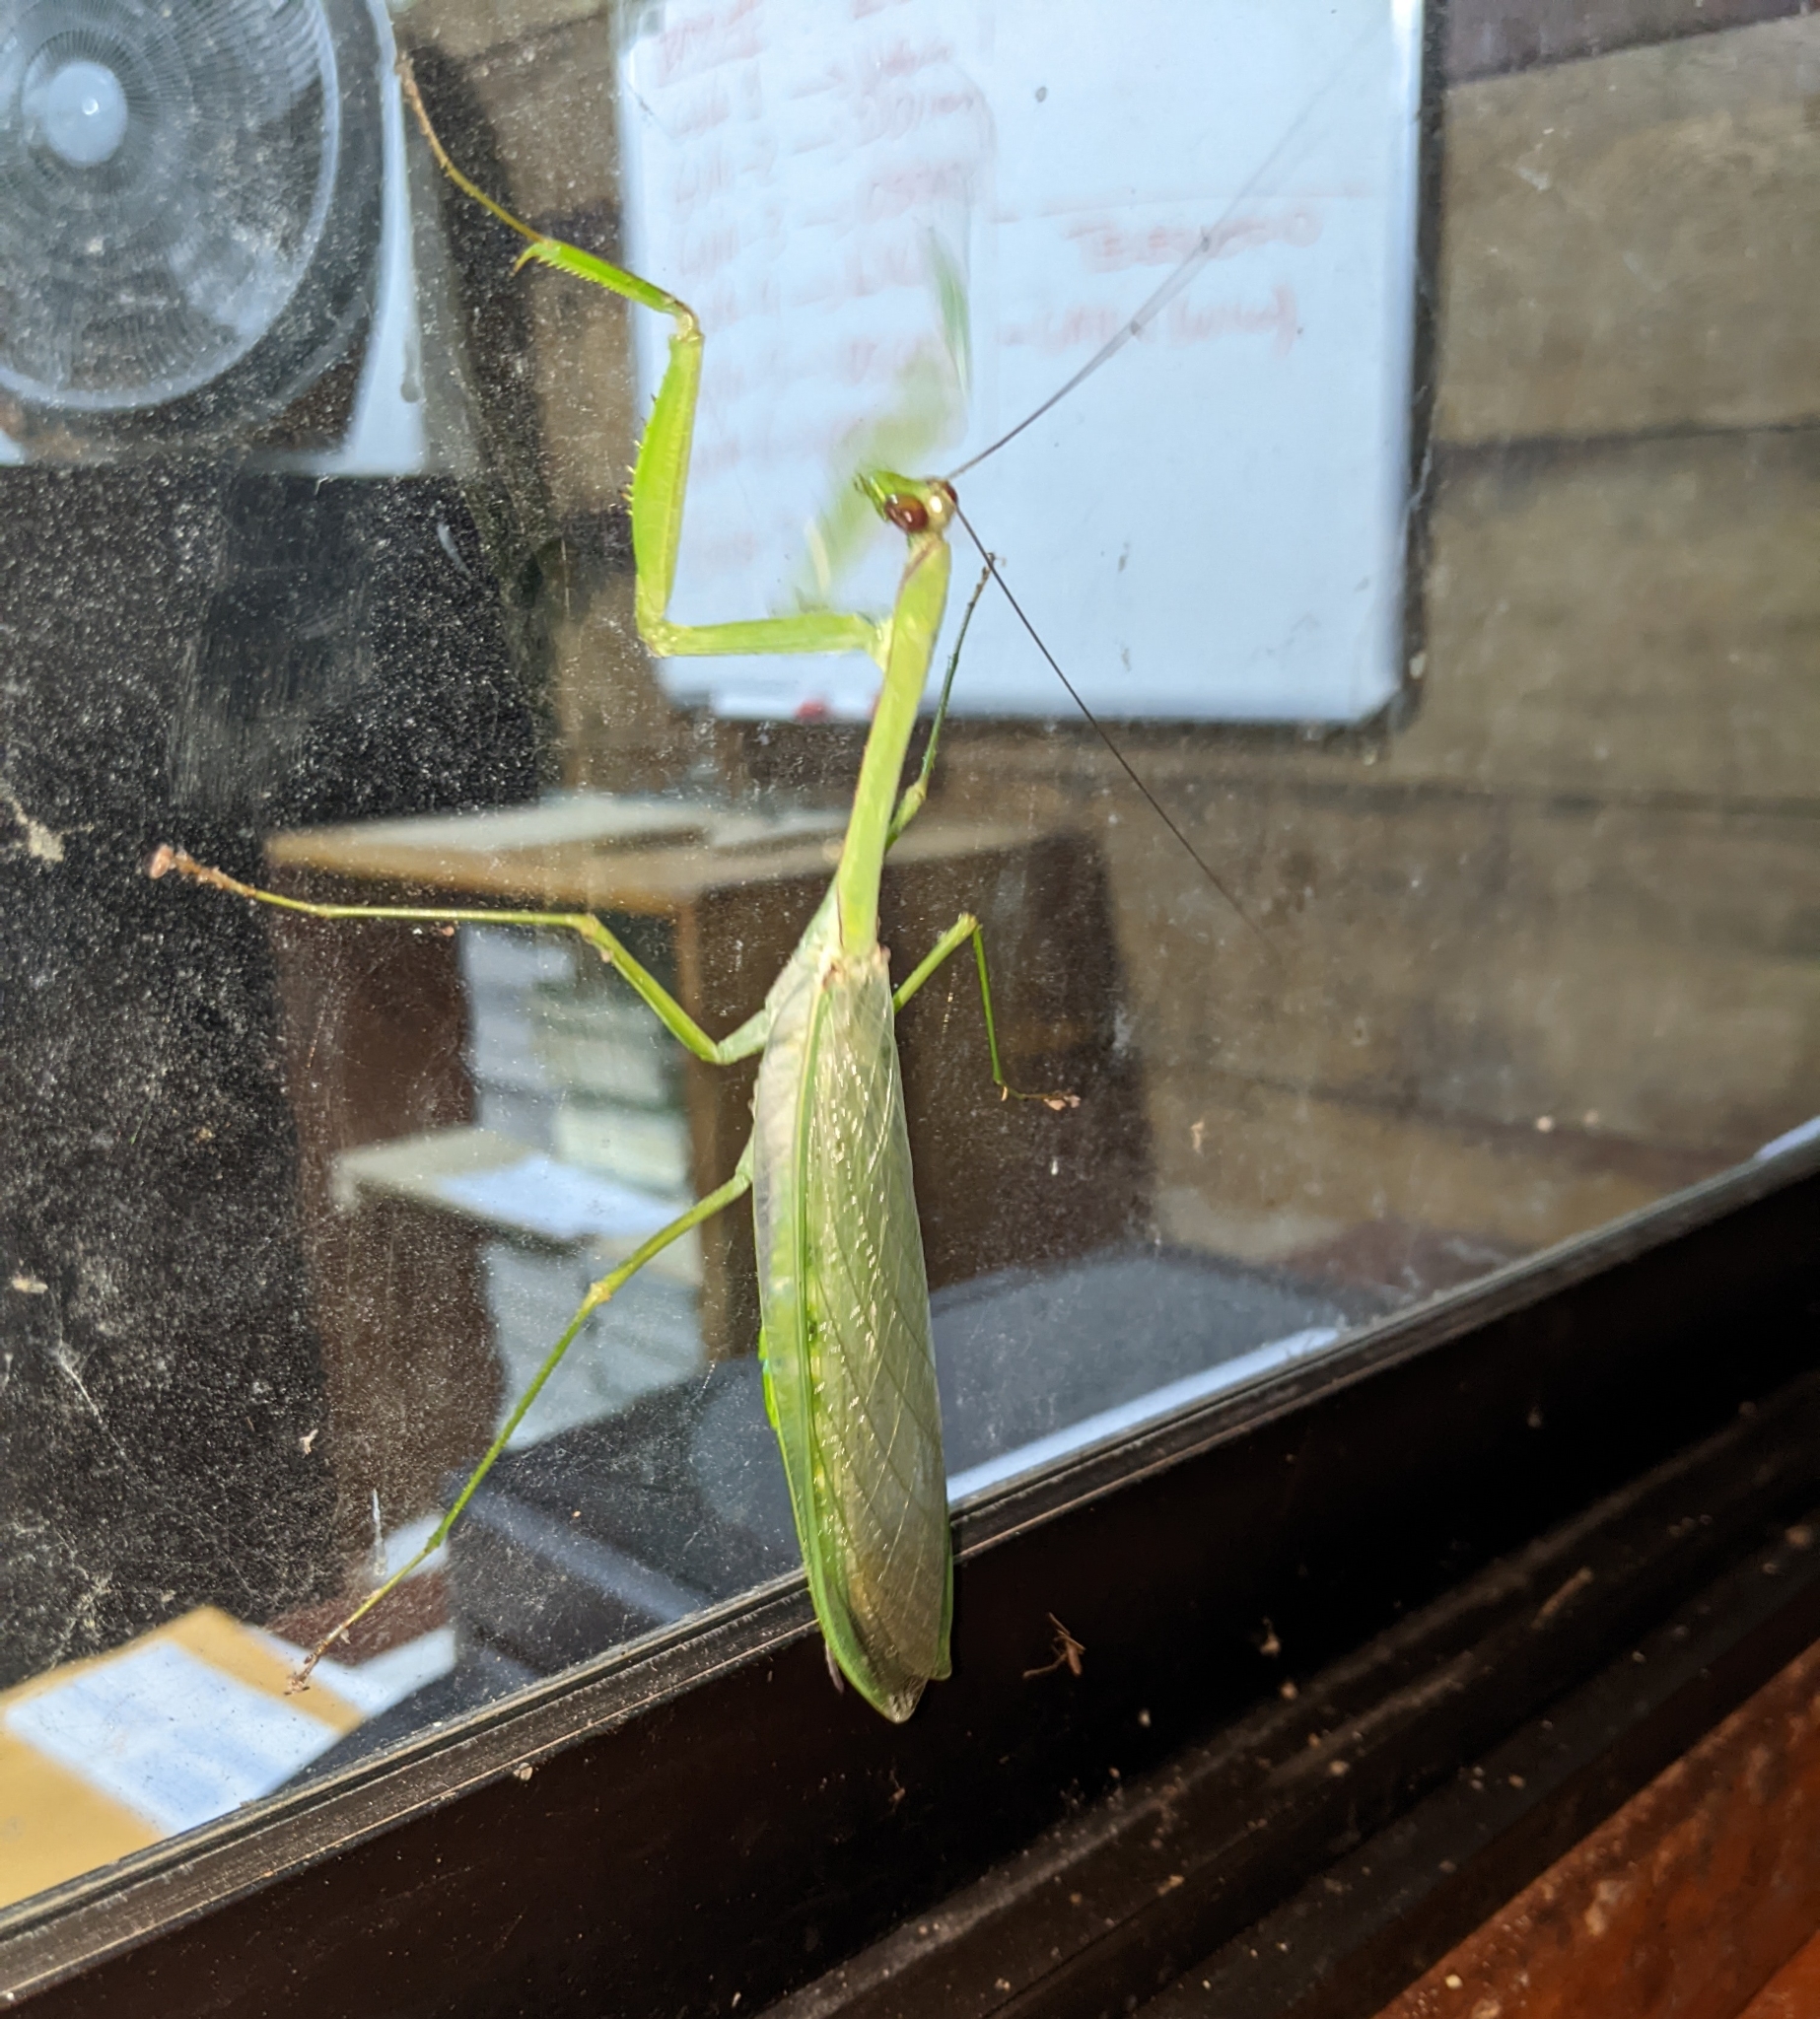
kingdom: Animalia
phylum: Arthropoda
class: Insecta
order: Mantodea
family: Photinaidae
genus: Macromantis
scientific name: Macromantis hyalina
